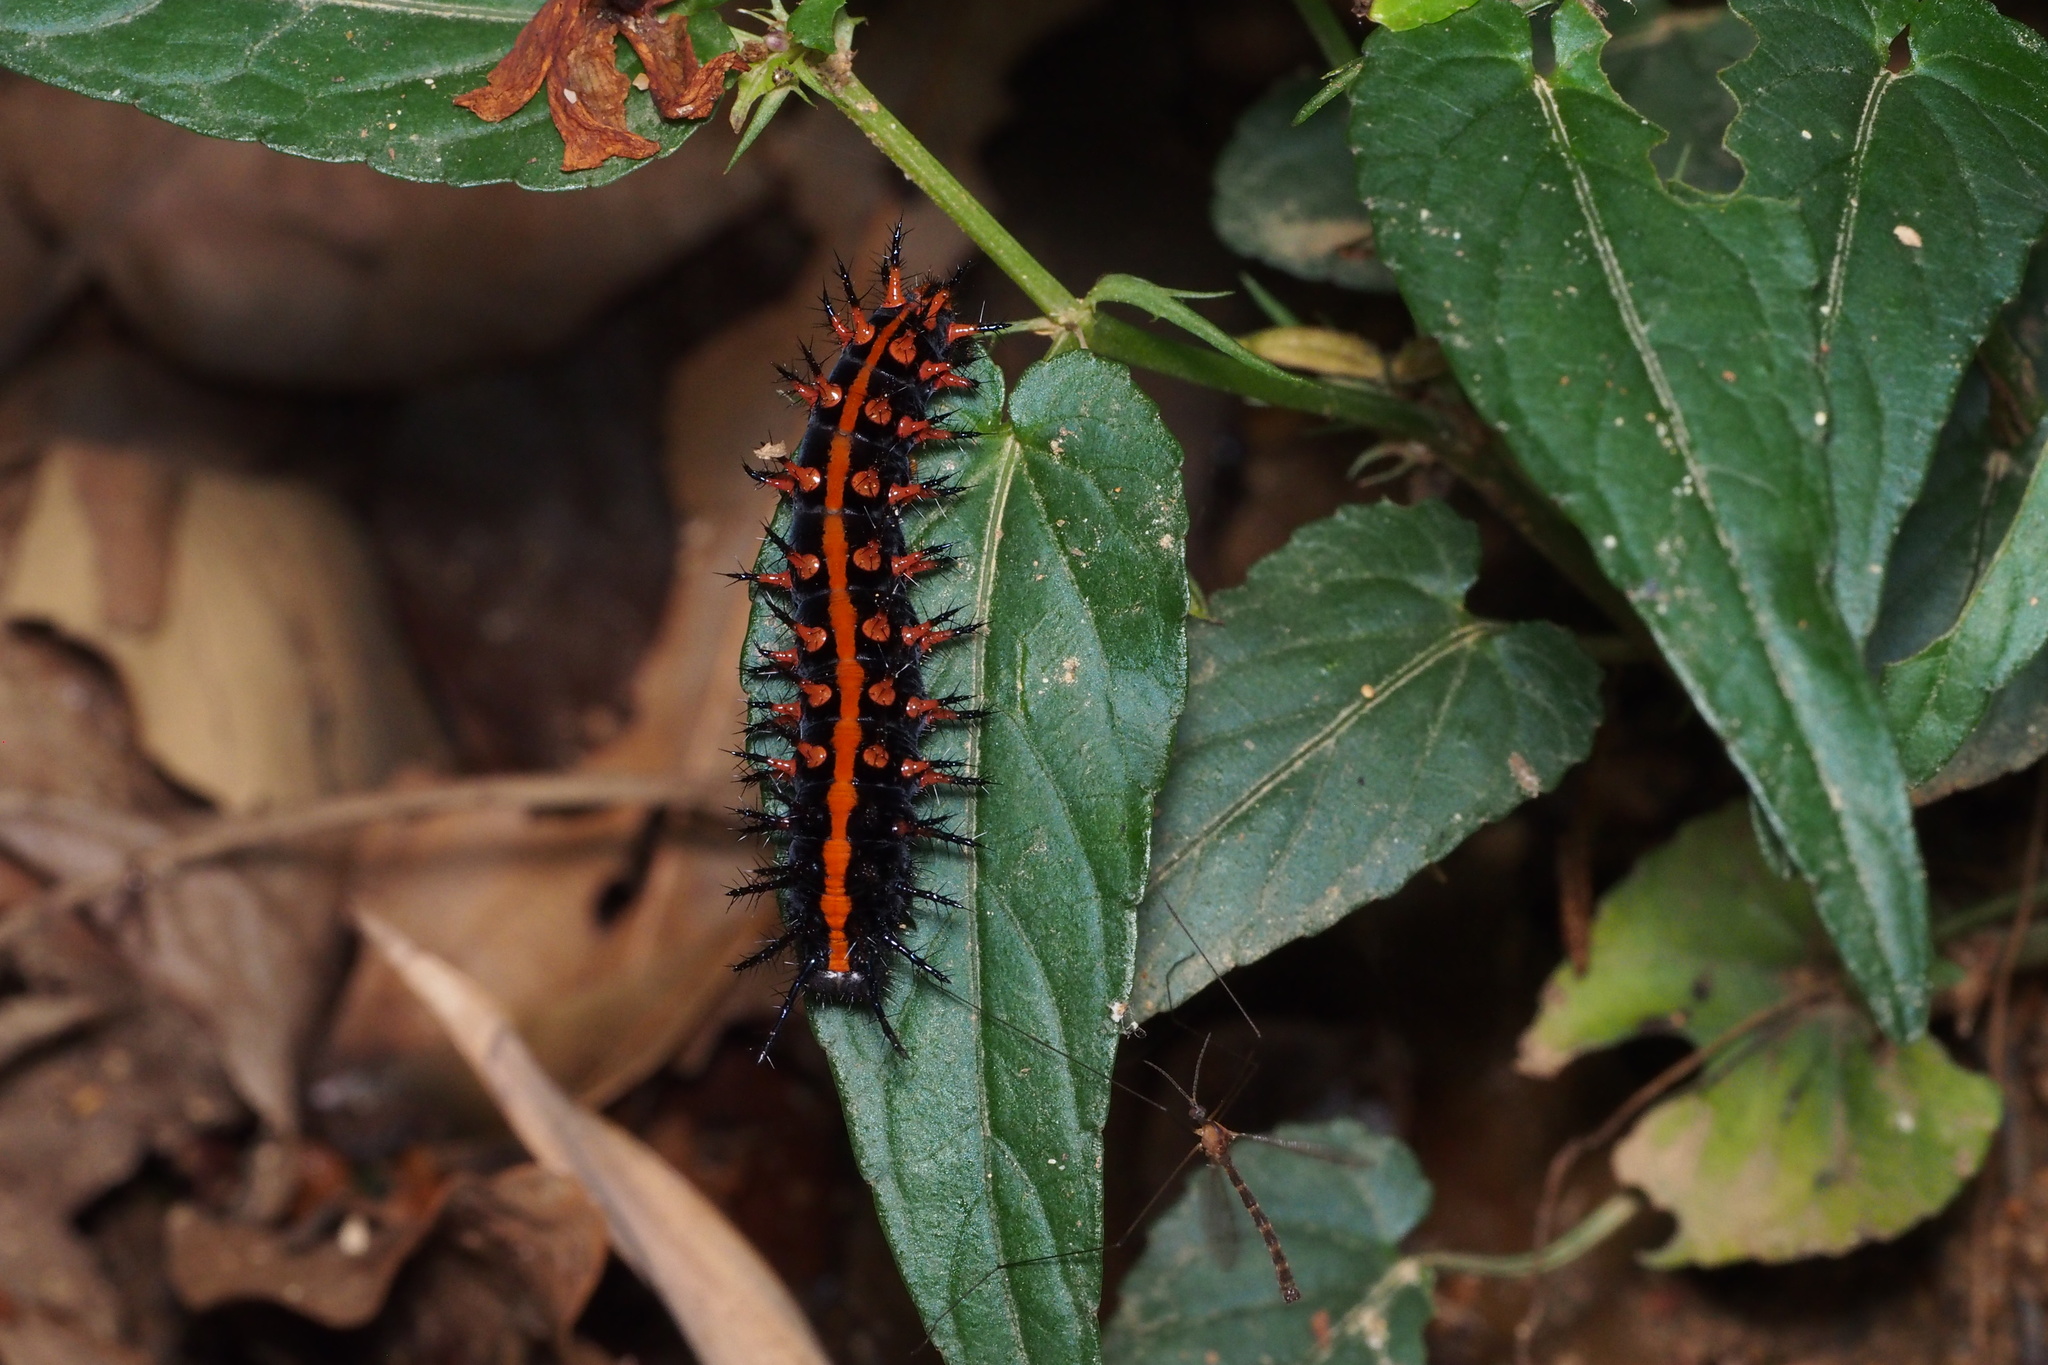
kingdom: Animalia
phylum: Arthropoda
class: Insecta
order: Lepidoptera
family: Nymphalidae
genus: Argynnis
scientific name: Argynnis hyperbius
